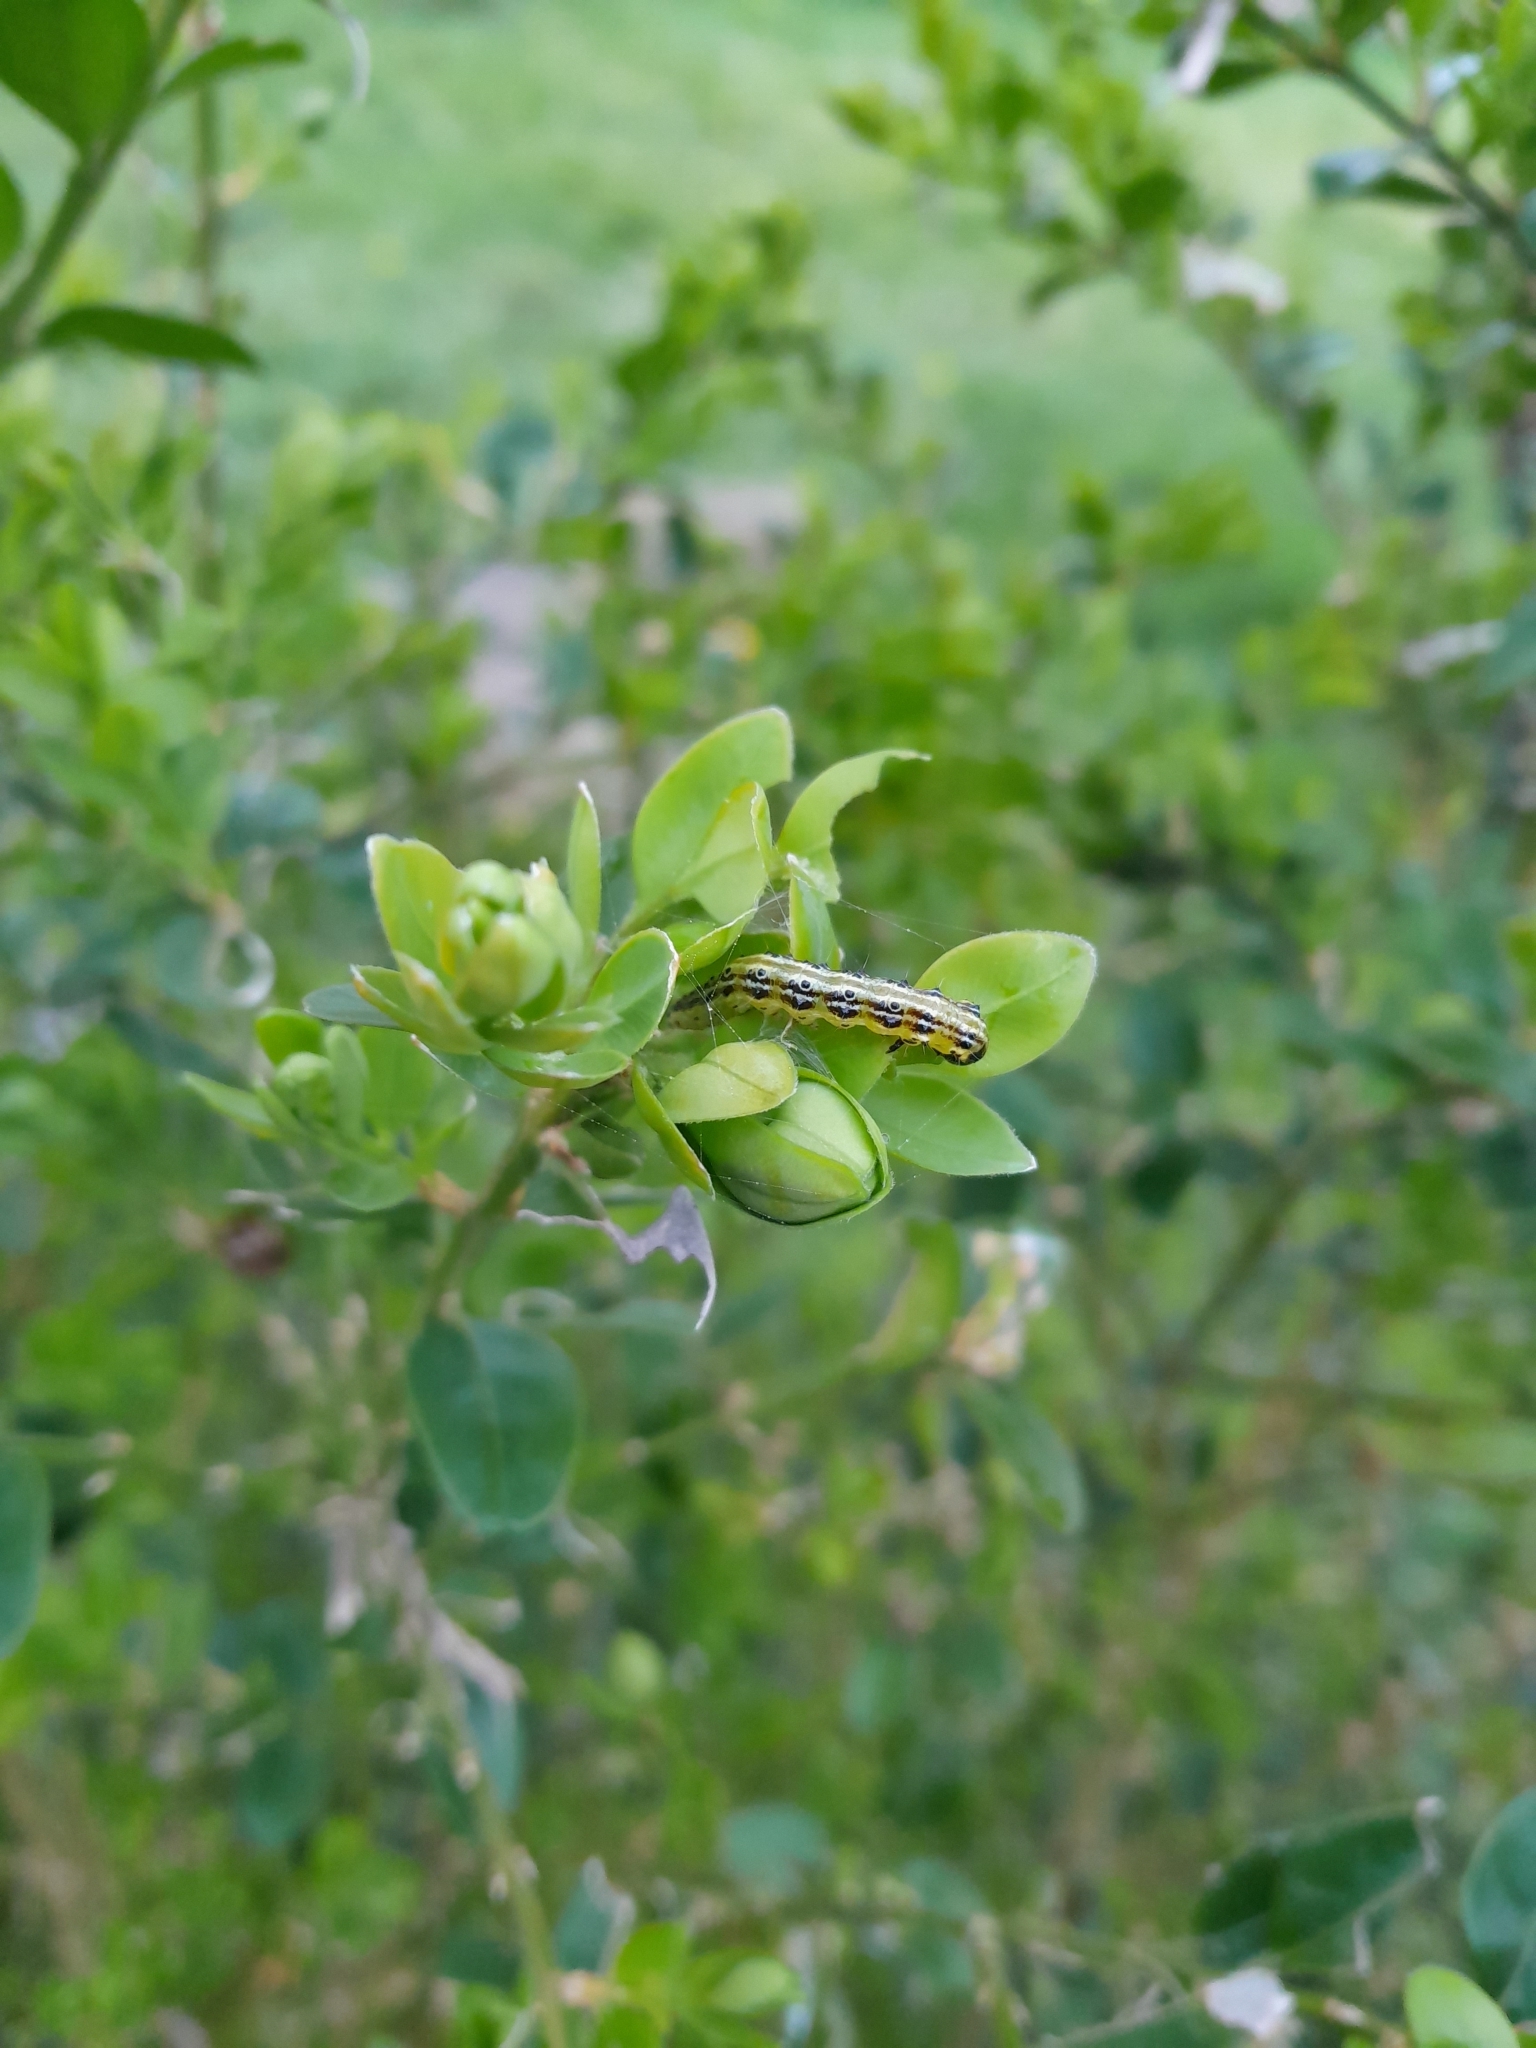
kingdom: Animalia
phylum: Arthropoda
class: Insecta
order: Lepidoptera
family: Crambidae
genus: Cydalima
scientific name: Cydalima perspectalis
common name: Box tree moth
